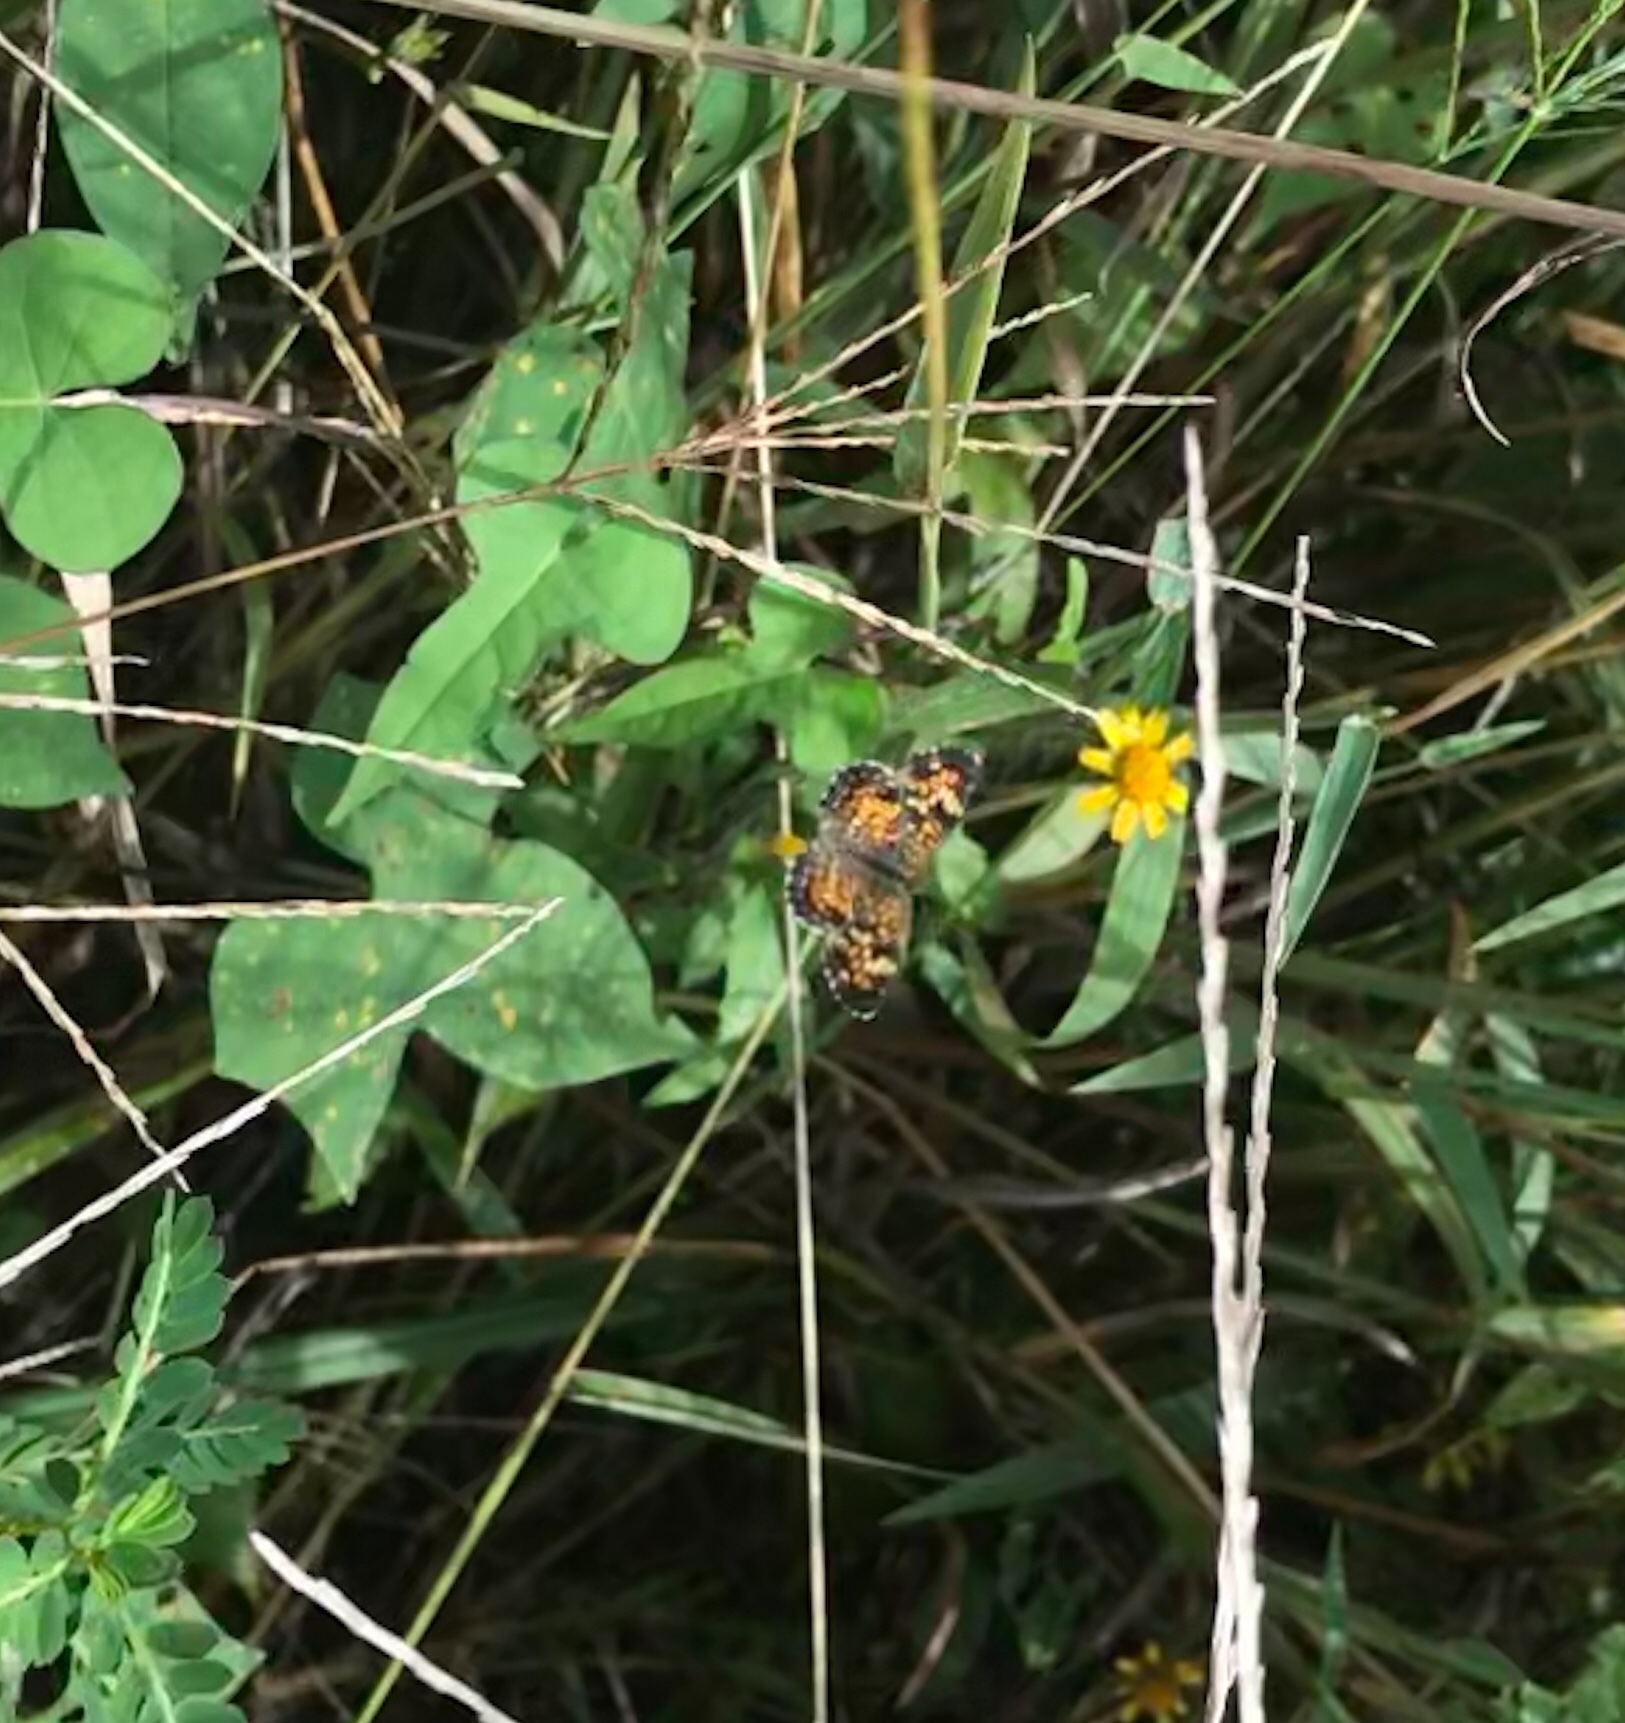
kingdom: Animalia
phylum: Arthropoda
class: Insecta
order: Lepidoptera
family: Nymphalidae
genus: Phyciodes
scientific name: Phyciodes phaon
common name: Phaon crescent
